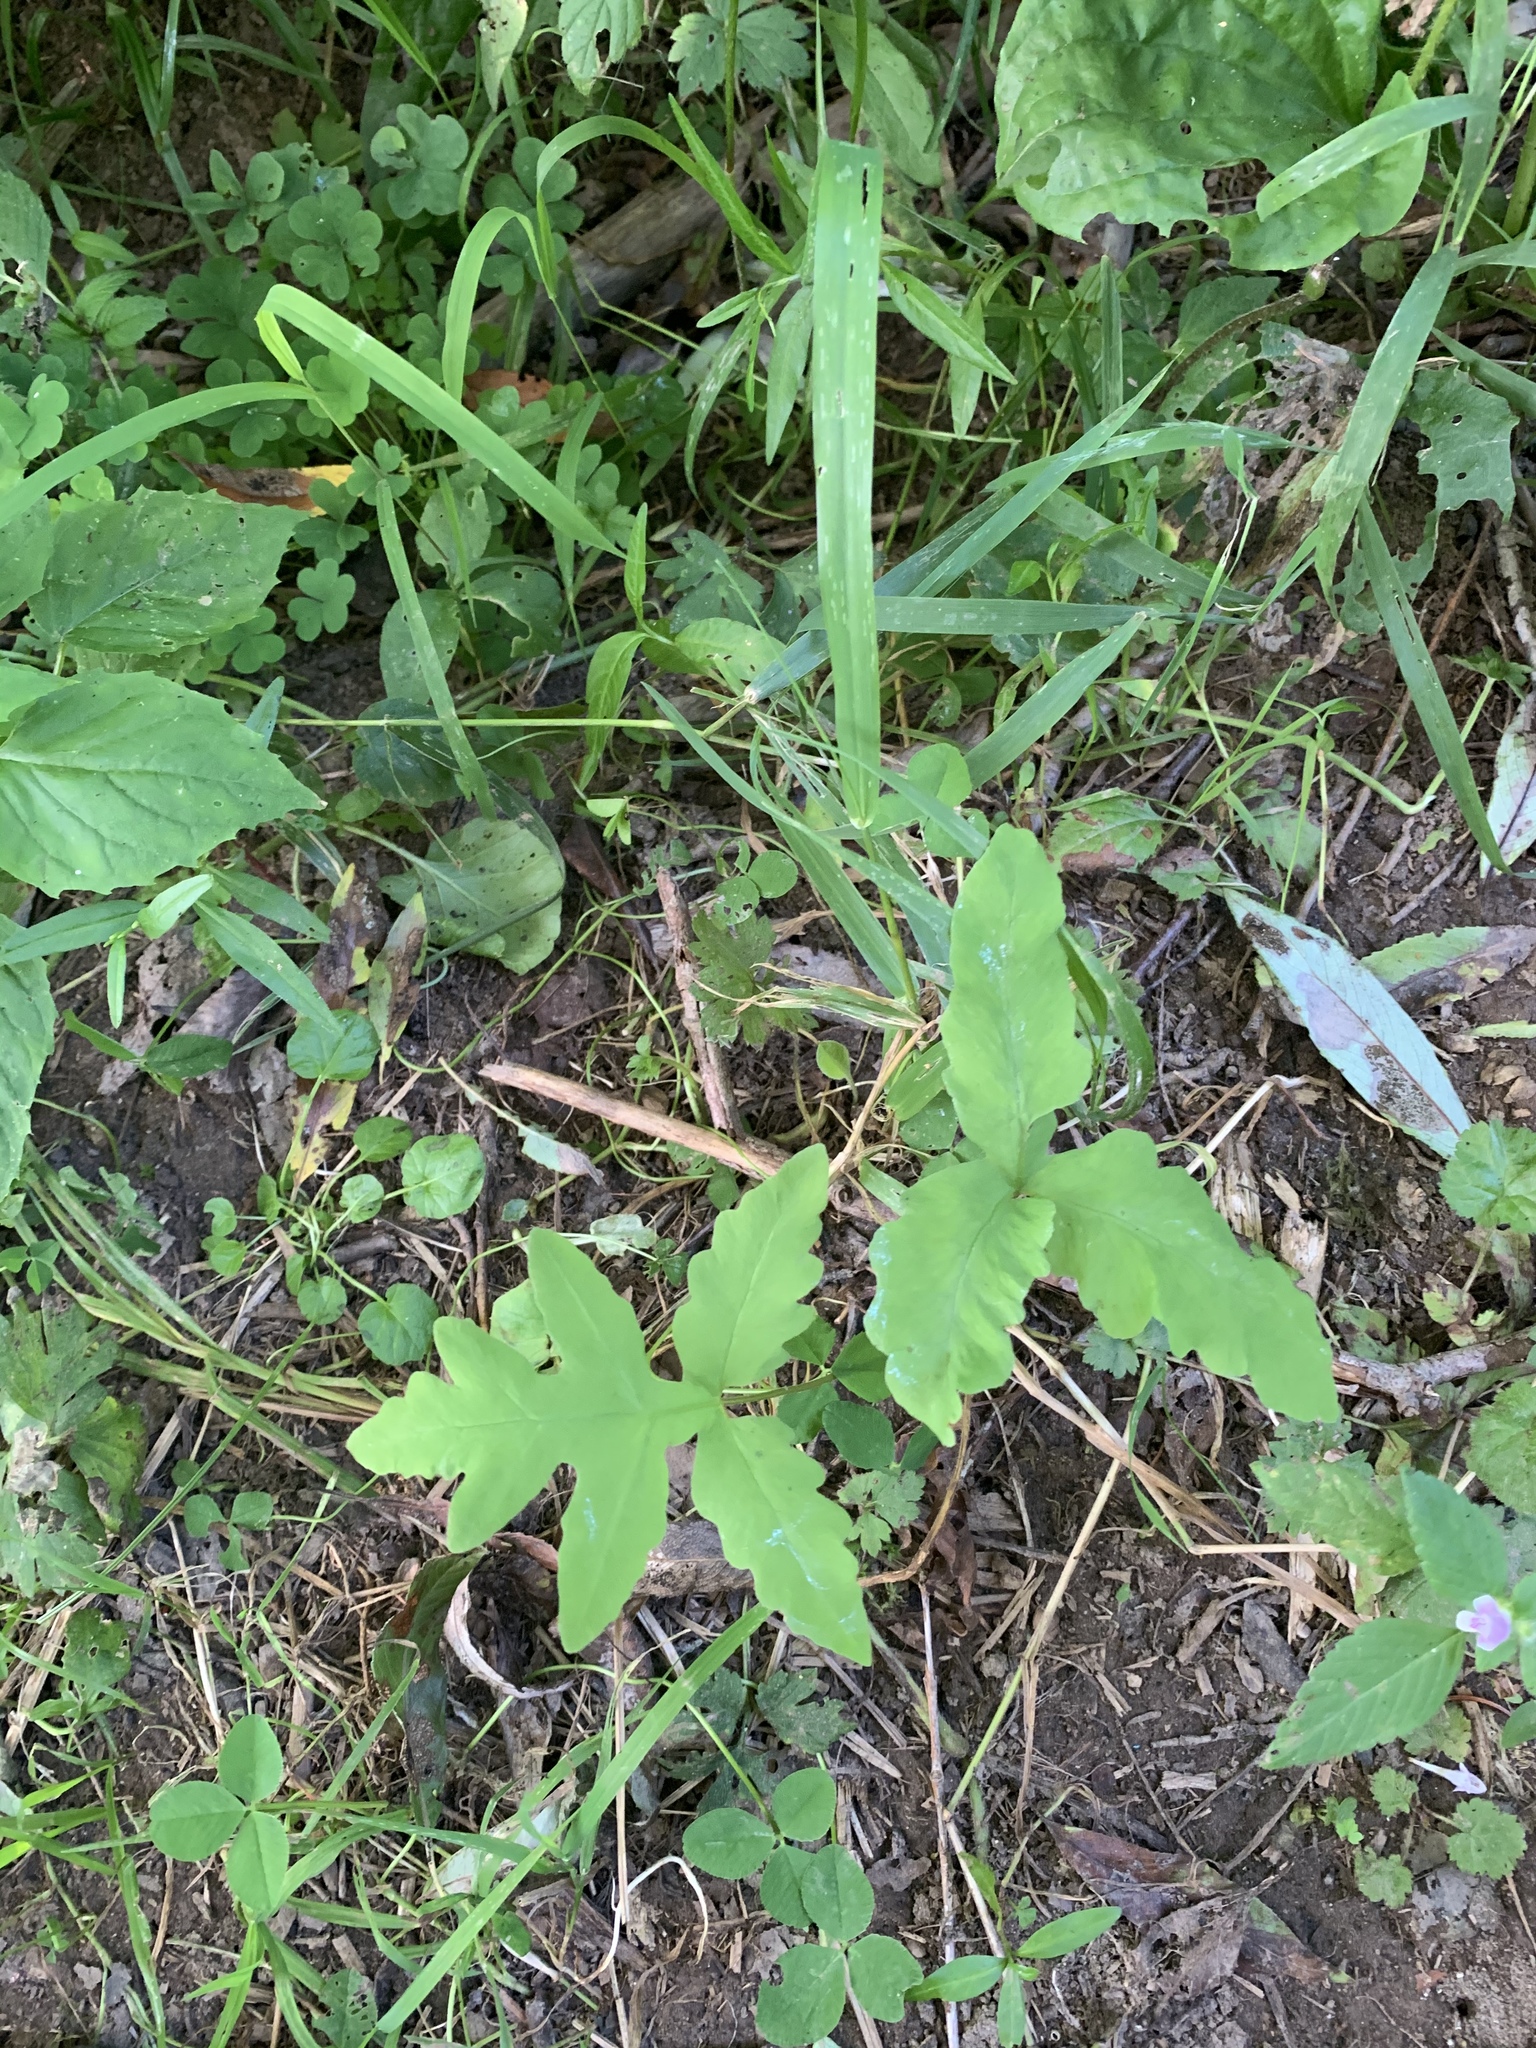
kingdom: Plantae
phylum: Tracheophyta
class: Polypodiopsida
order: Polypodiales
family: Onocleaceae
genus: Onoclea
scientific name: Onoclea sensibilis
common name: Sensitive fern
